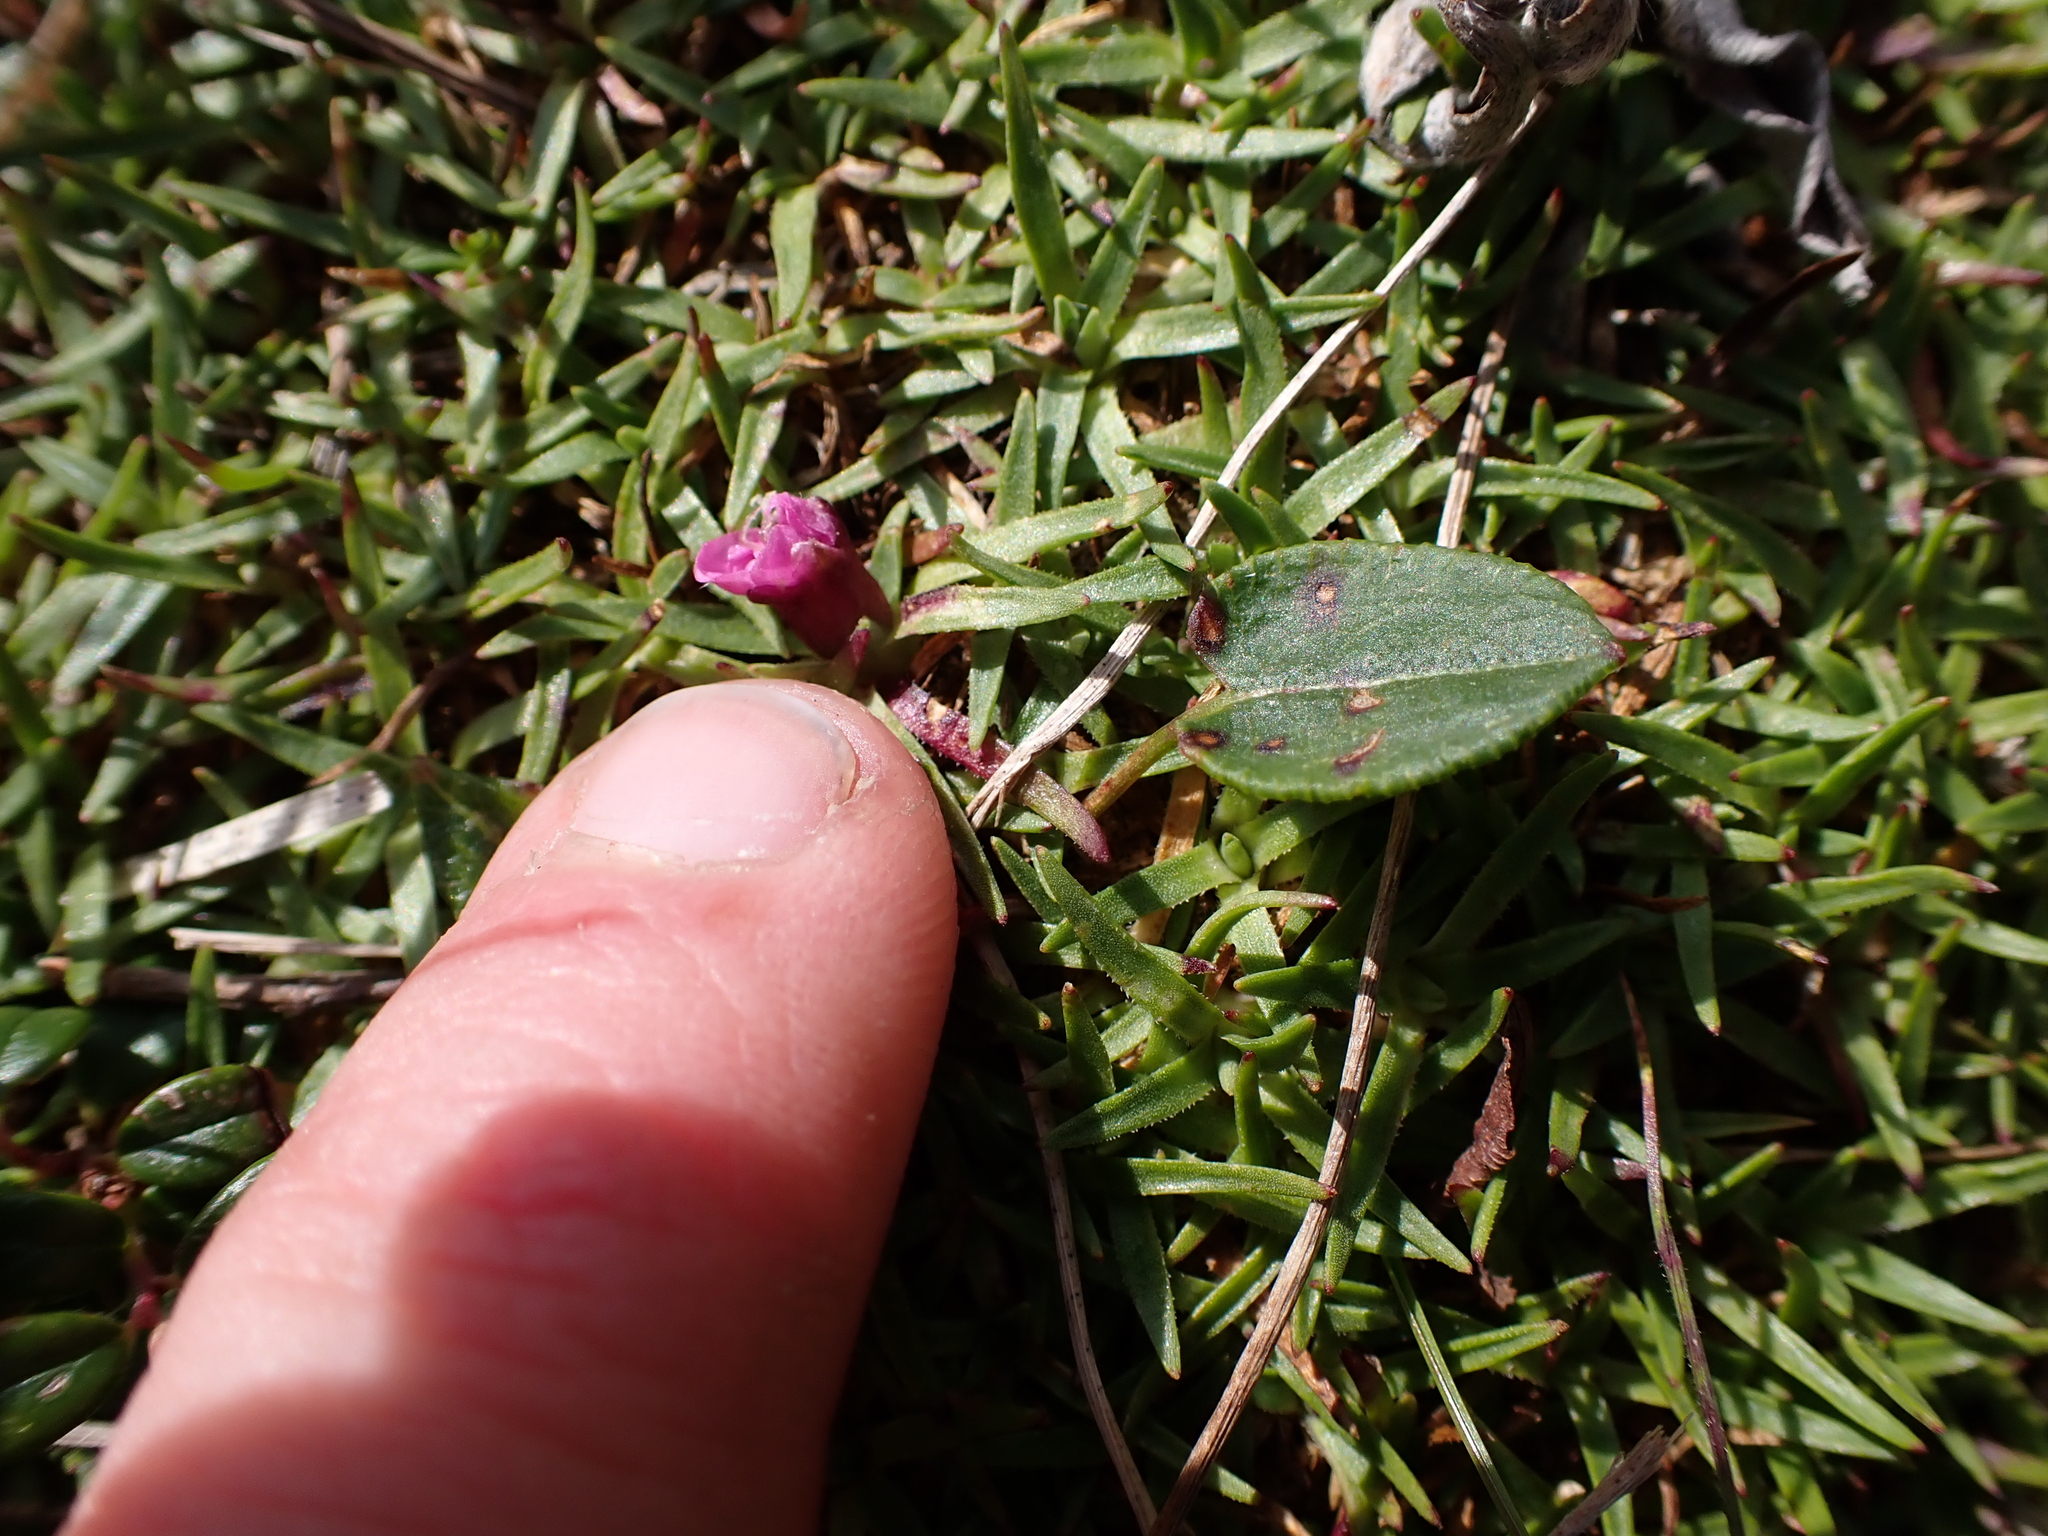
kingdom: Plantae
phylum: Tracheophyta
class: Magnoliopsida
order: Caryophyllales
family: Caryophyllaceae
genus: Silene
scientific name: Silene acaulis
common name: Moss campion
